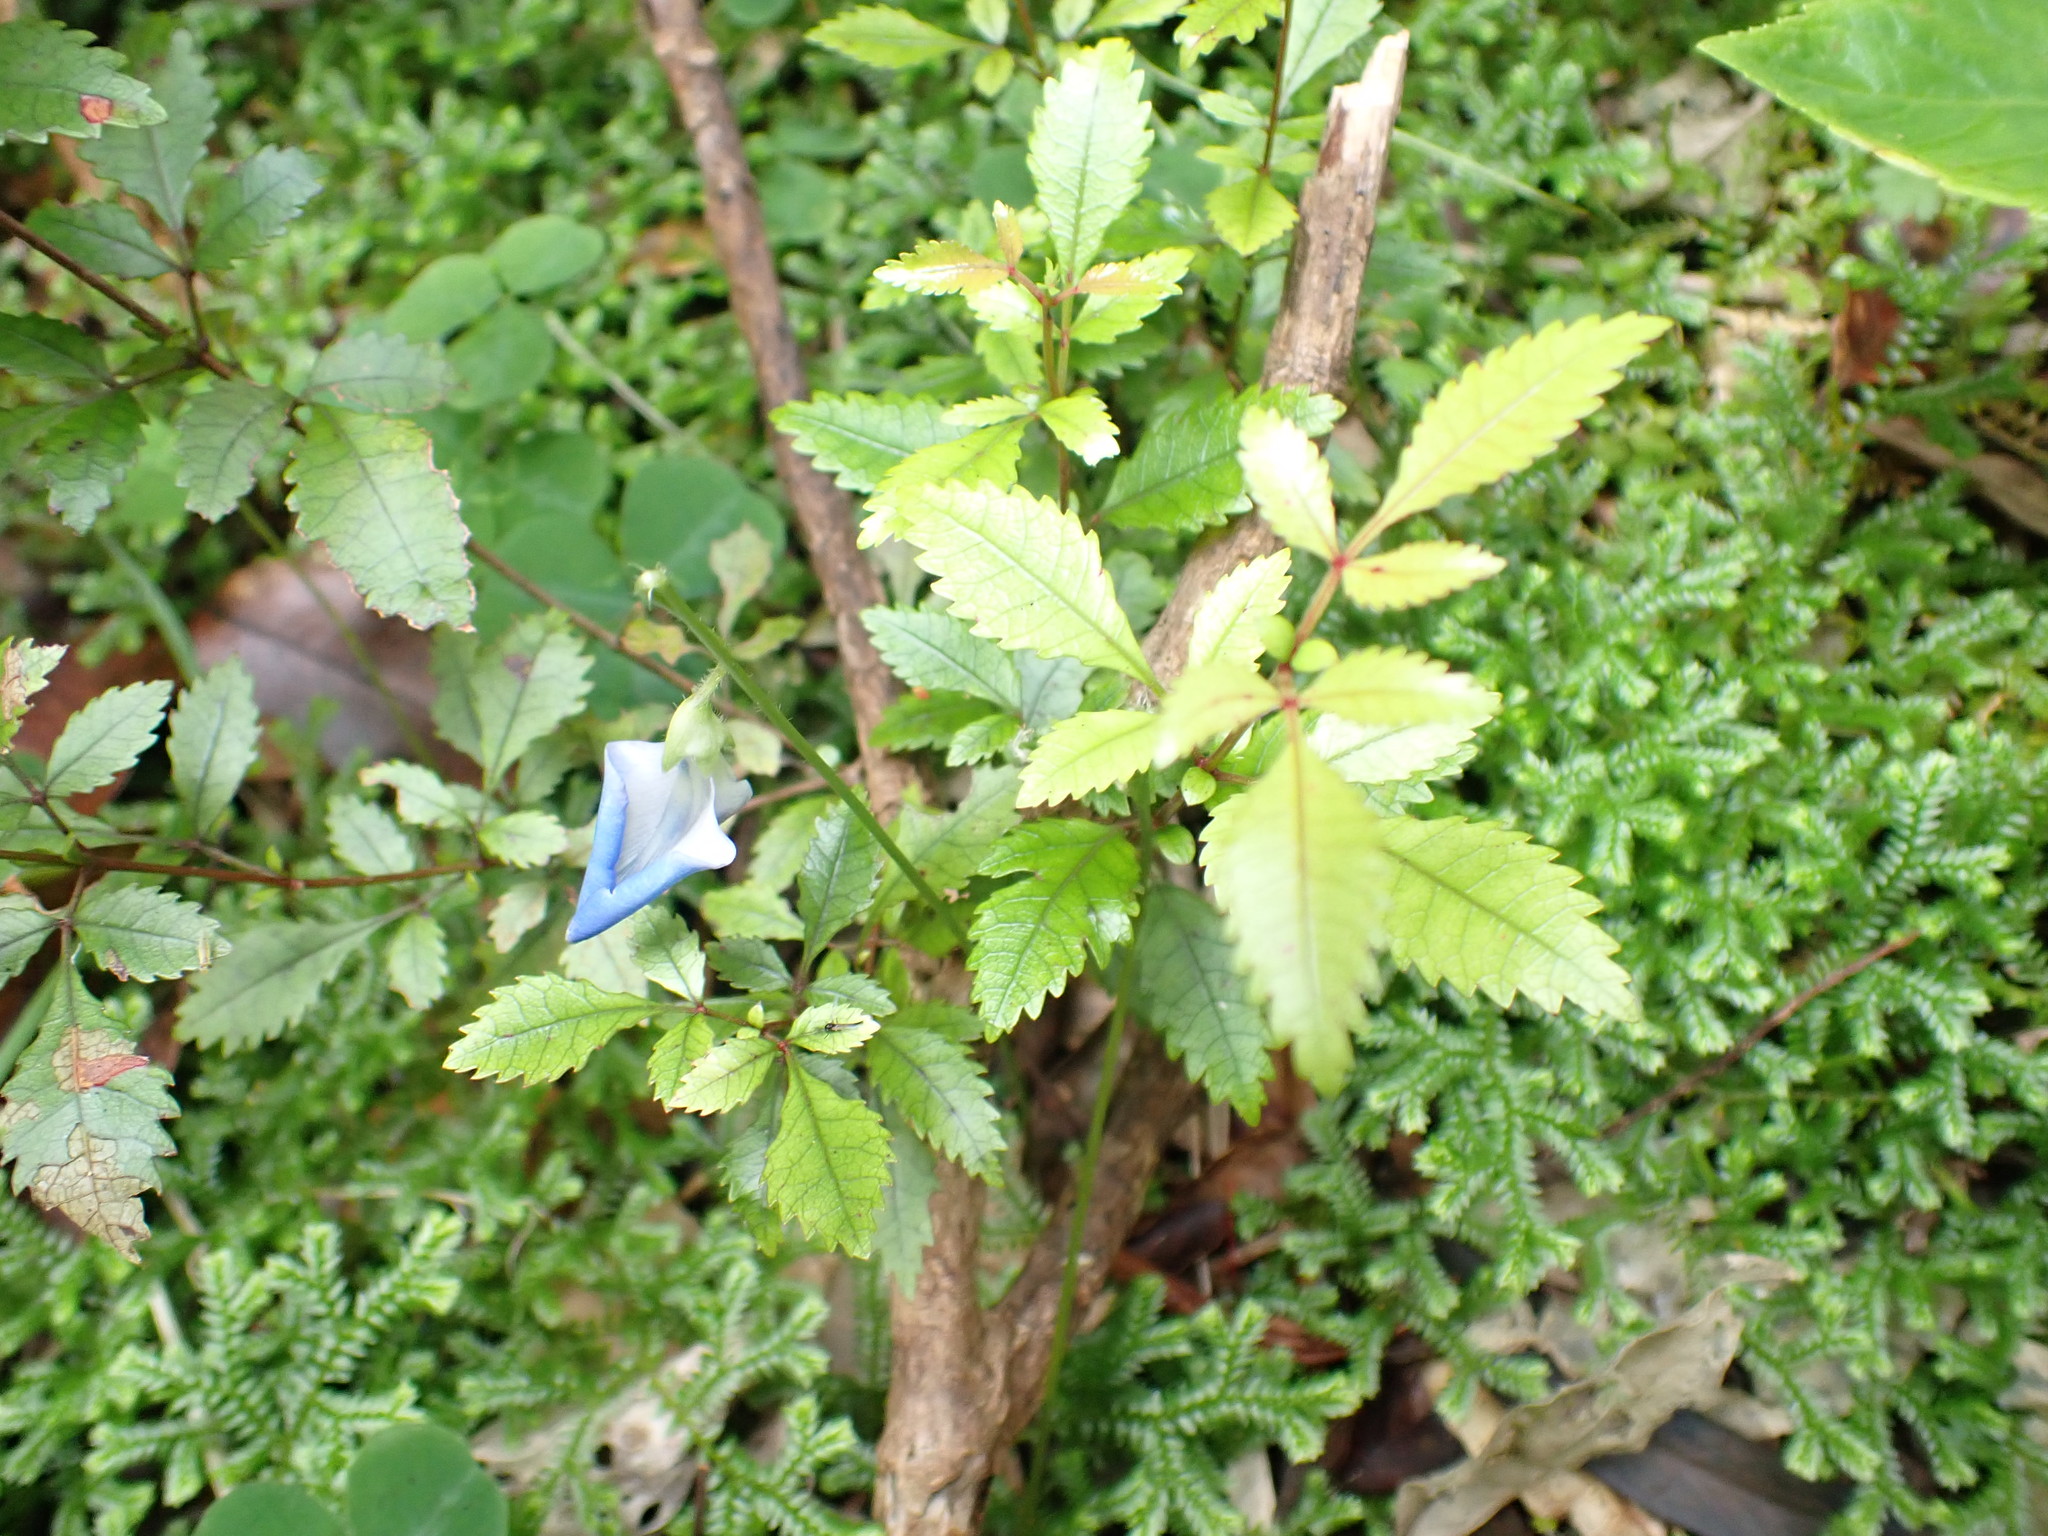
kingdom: Plantae
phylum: Tracheophyta
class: Magnoliopsida
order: Fabales
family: Fabaceae
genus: Parochetus
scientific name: Parochetus communis
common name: Blue oxalis
